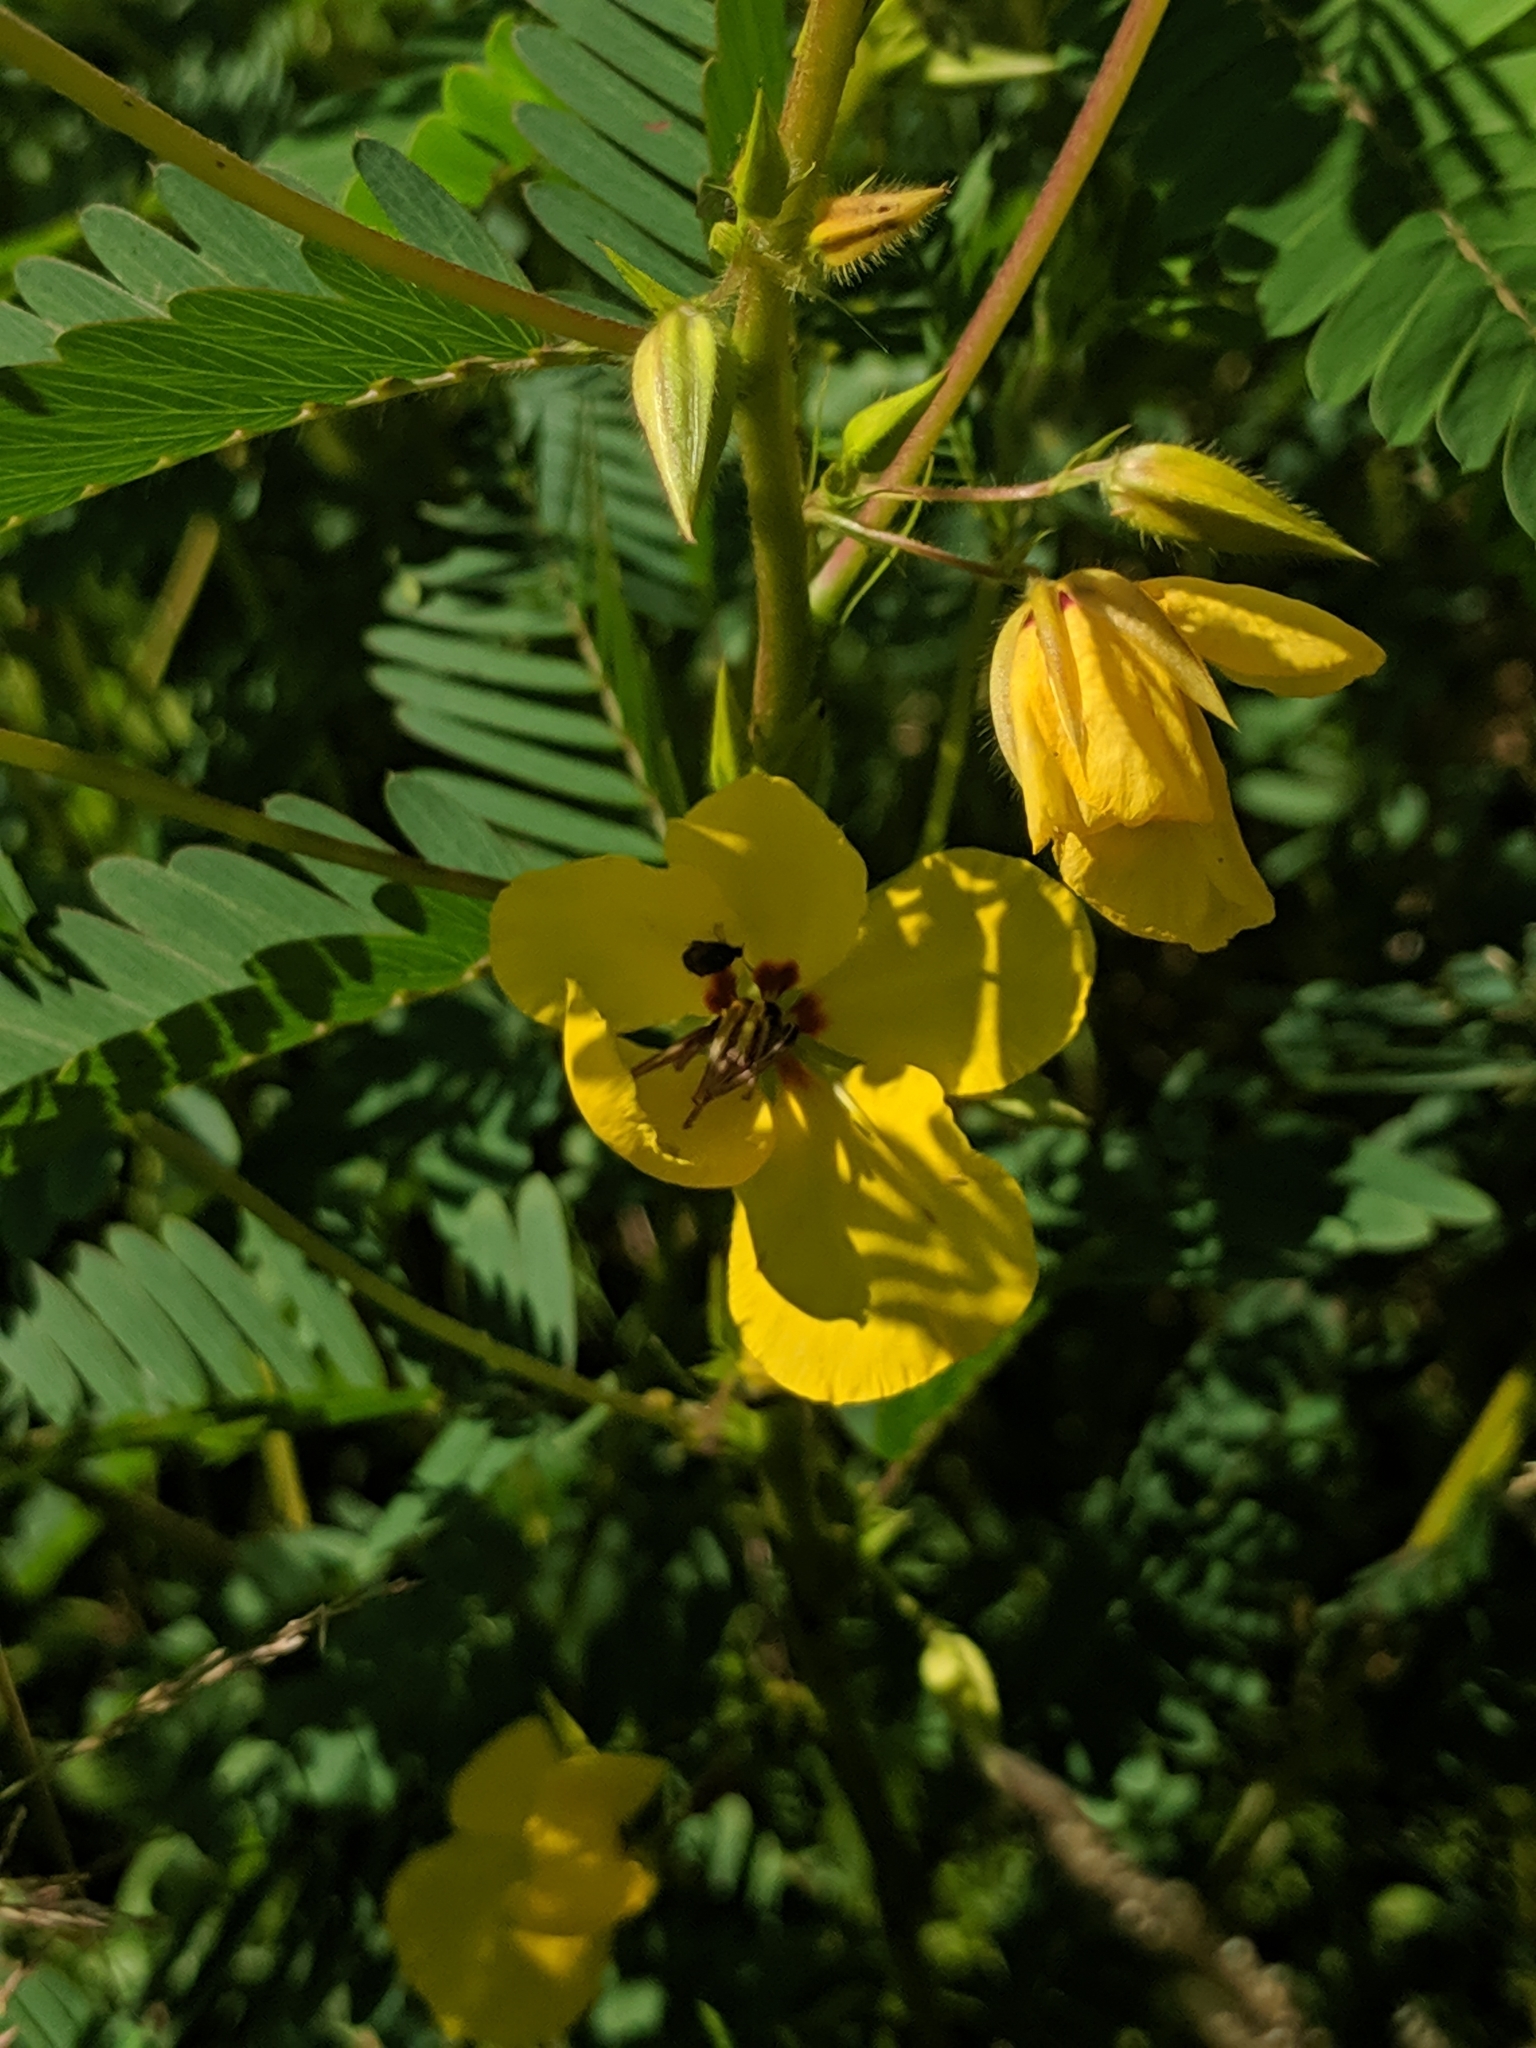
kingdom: Plantae
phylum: Tracheophyta
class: Magnoliopsida
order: Fabales
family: Fabaceae
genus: Chamaecrista
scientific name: Chamaecrista fasciculata
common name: Golden cassia
